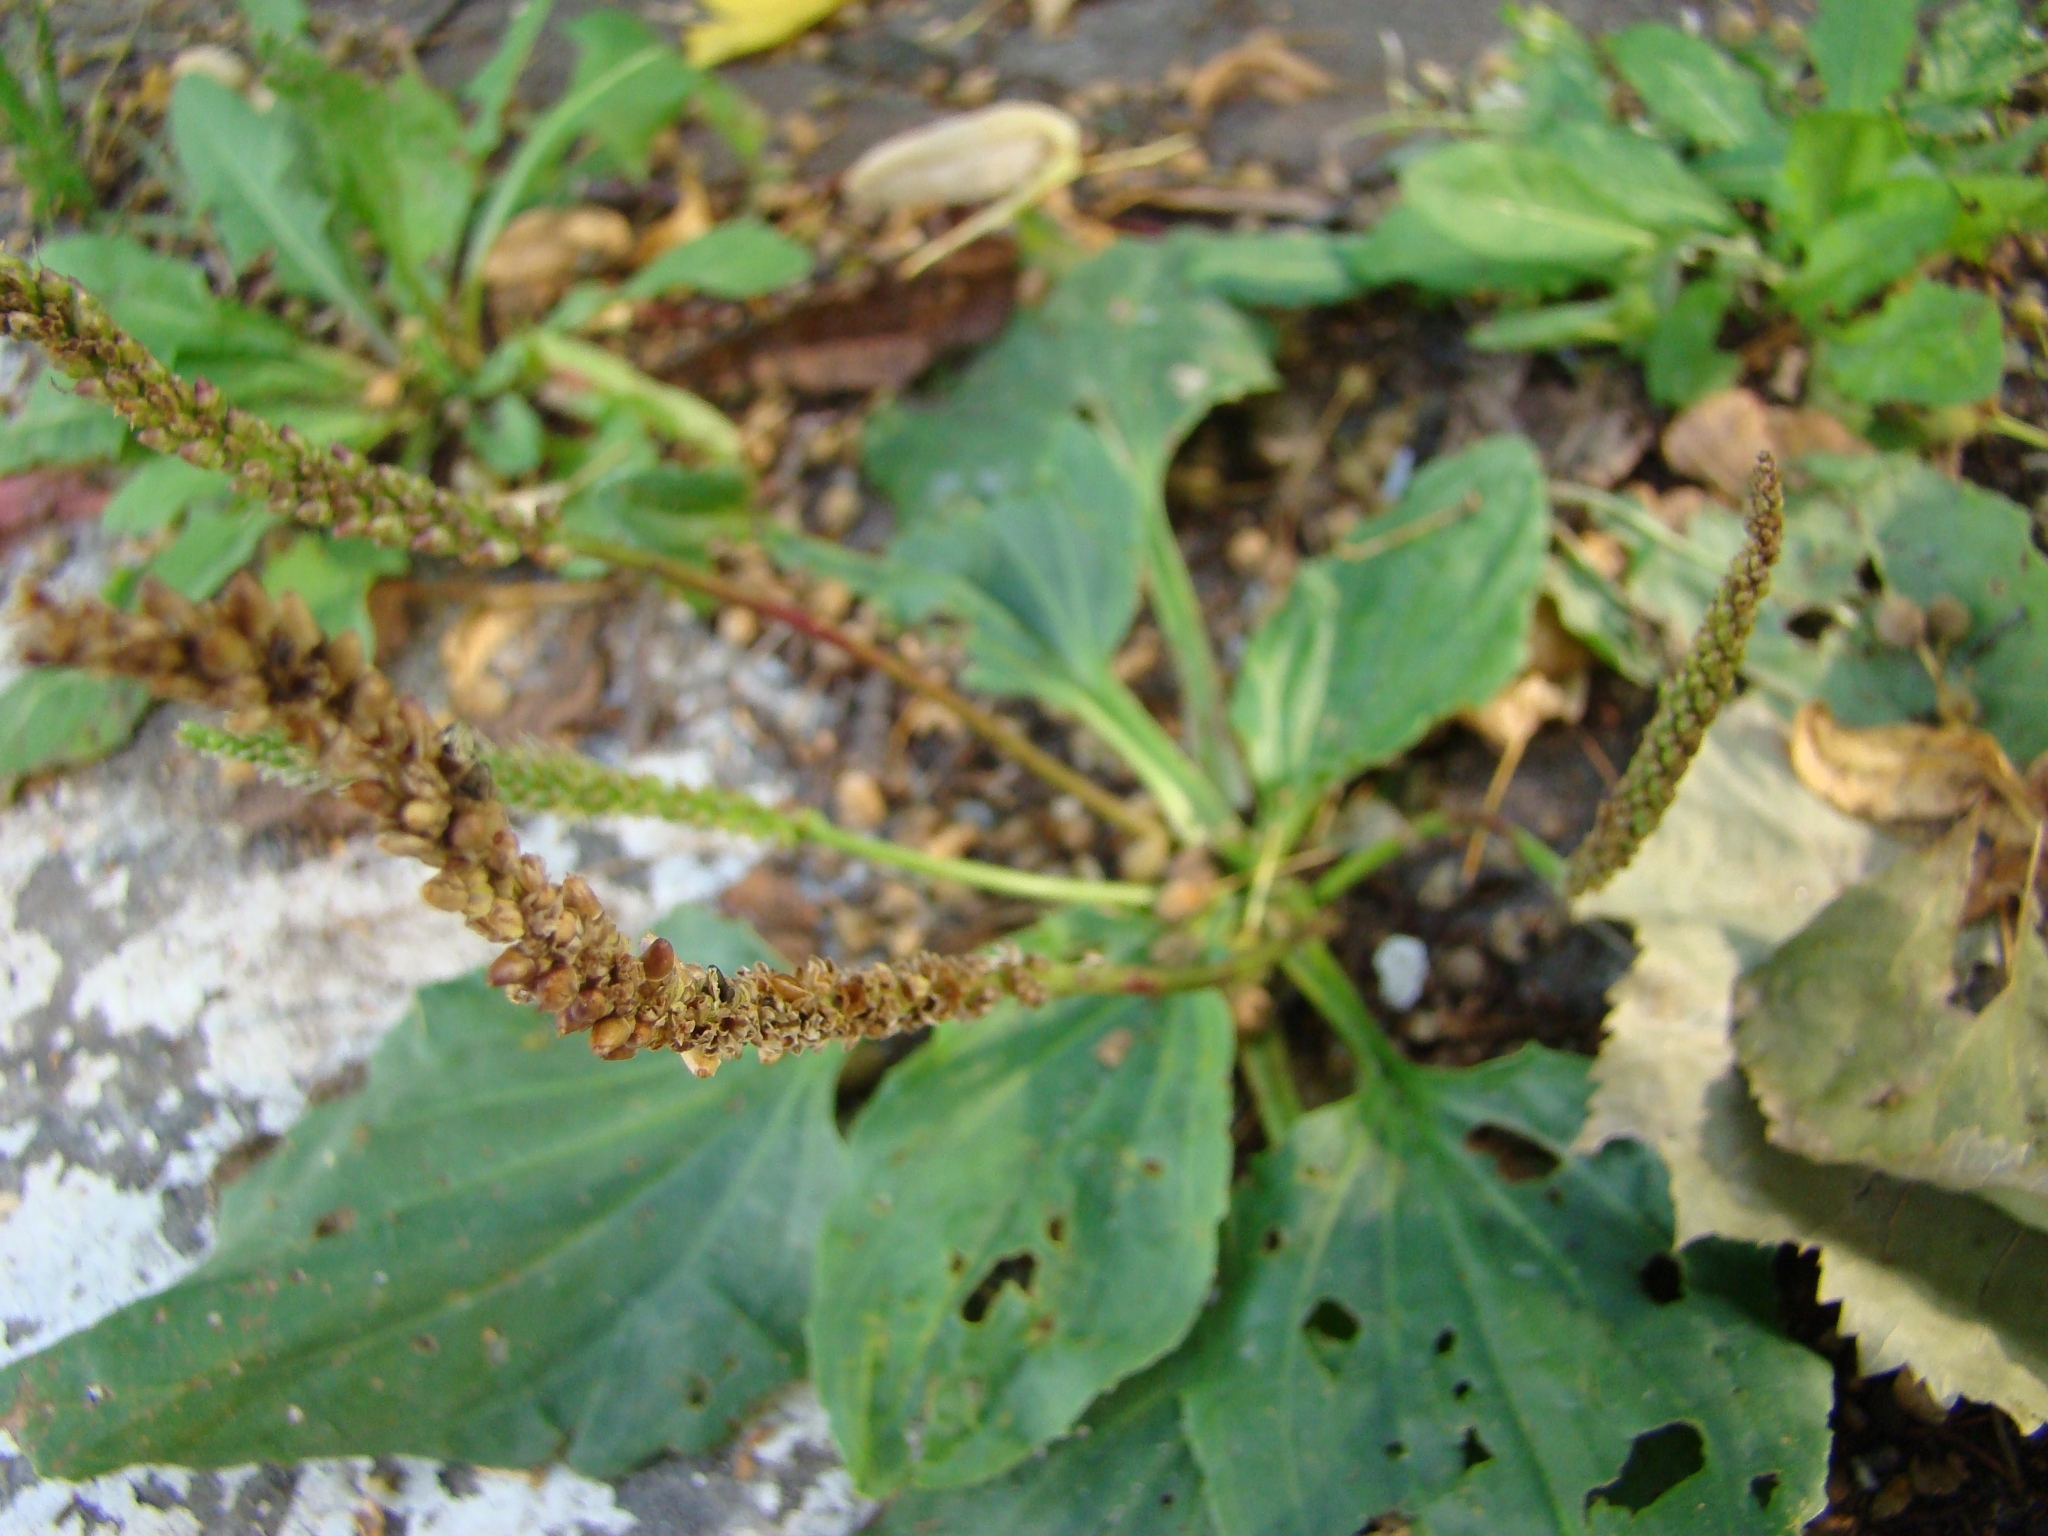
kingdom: Plantae
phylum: Tracheophyta
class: Magnoliopsida
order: Lamiales
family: Plantaginaceae
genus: Plantago
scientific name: Plantago major
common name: Common plantain
